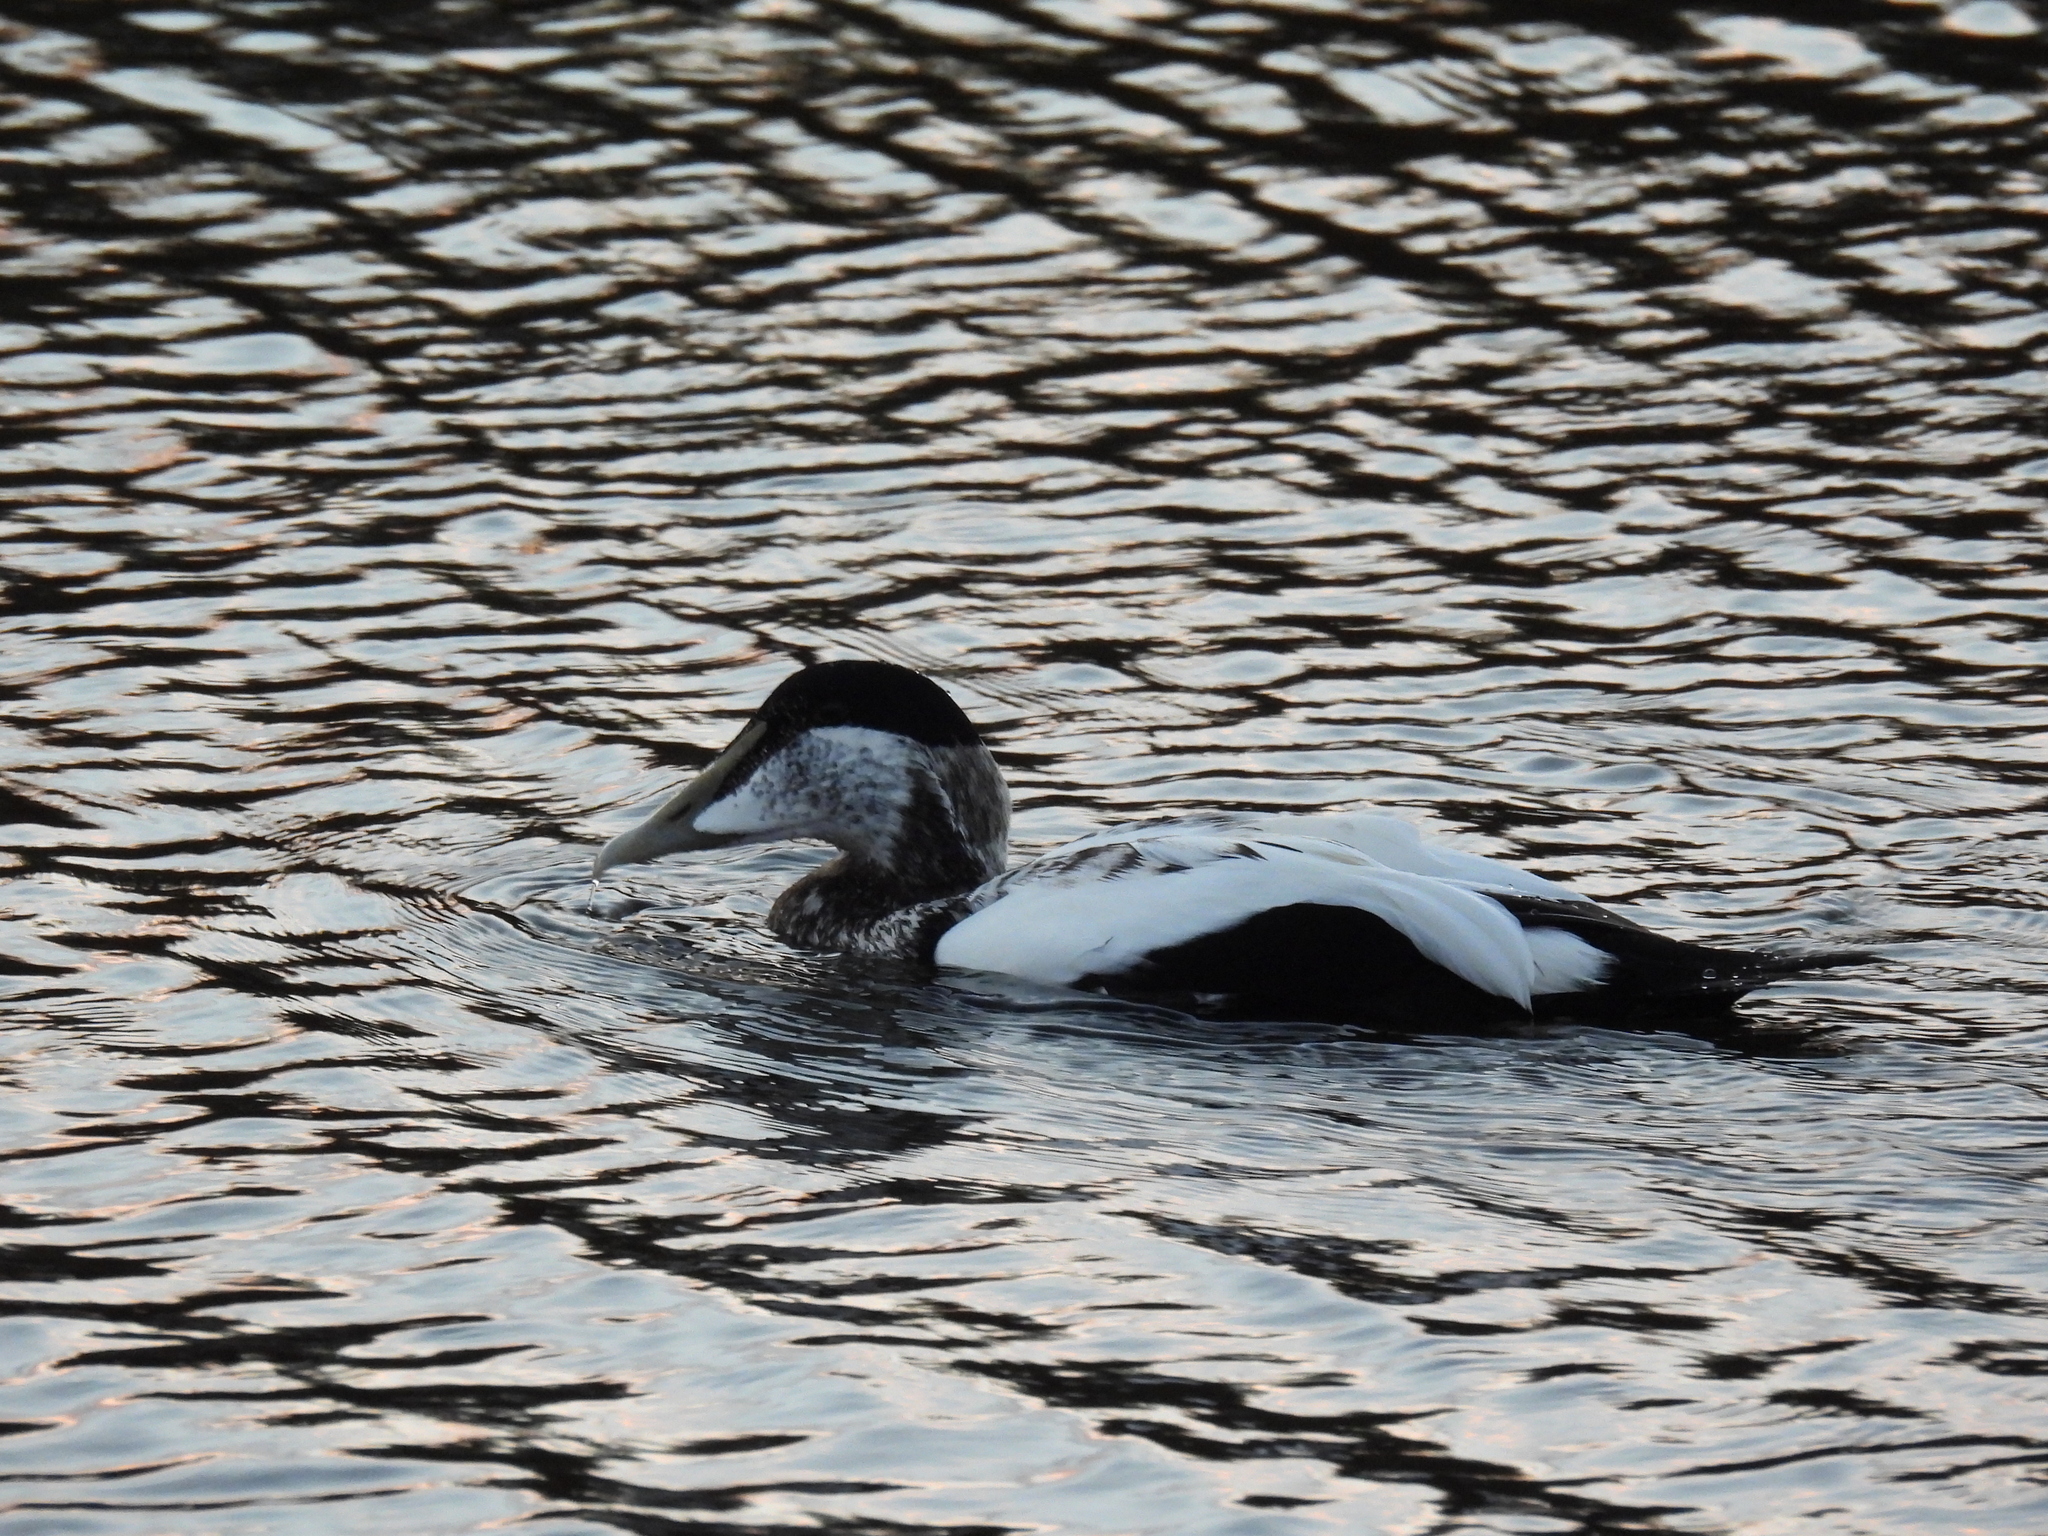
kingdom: Animalia
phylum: Chordata
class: Aves
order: Anseriformes
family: Anatidae
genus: Somateria
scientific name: Somateria mollissima
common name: Common eider
